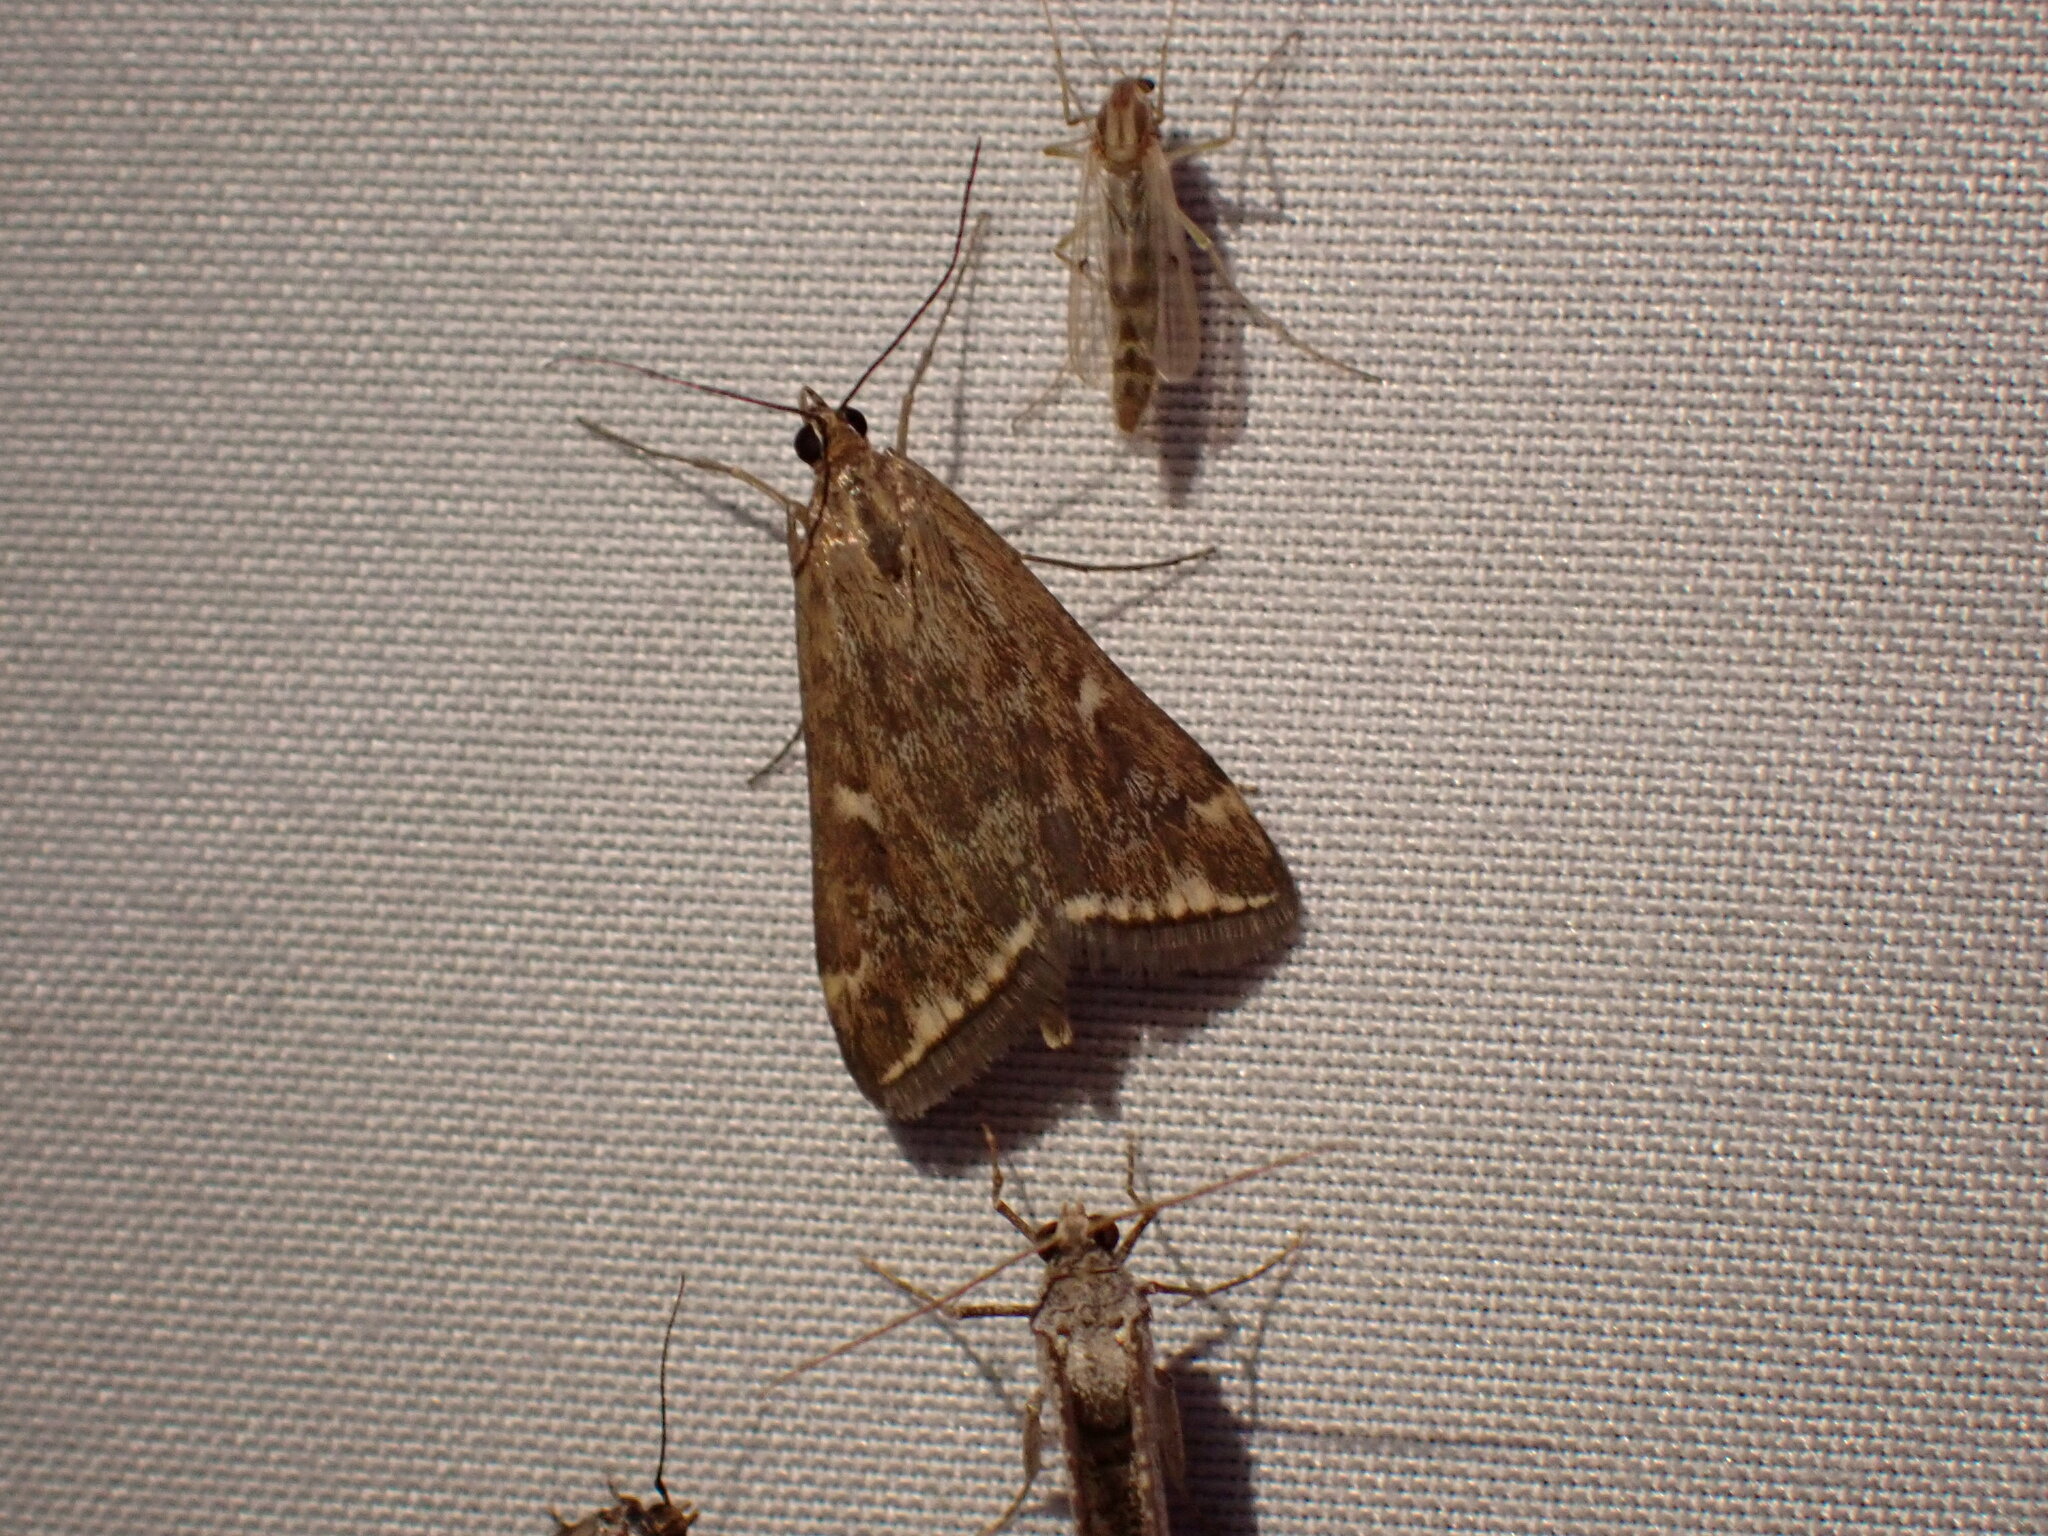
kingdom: Animalia
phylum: Arthropoda
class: Insecta
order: Lepidoptera
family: Crambidae
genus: Loxostege
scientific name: Loxostege
